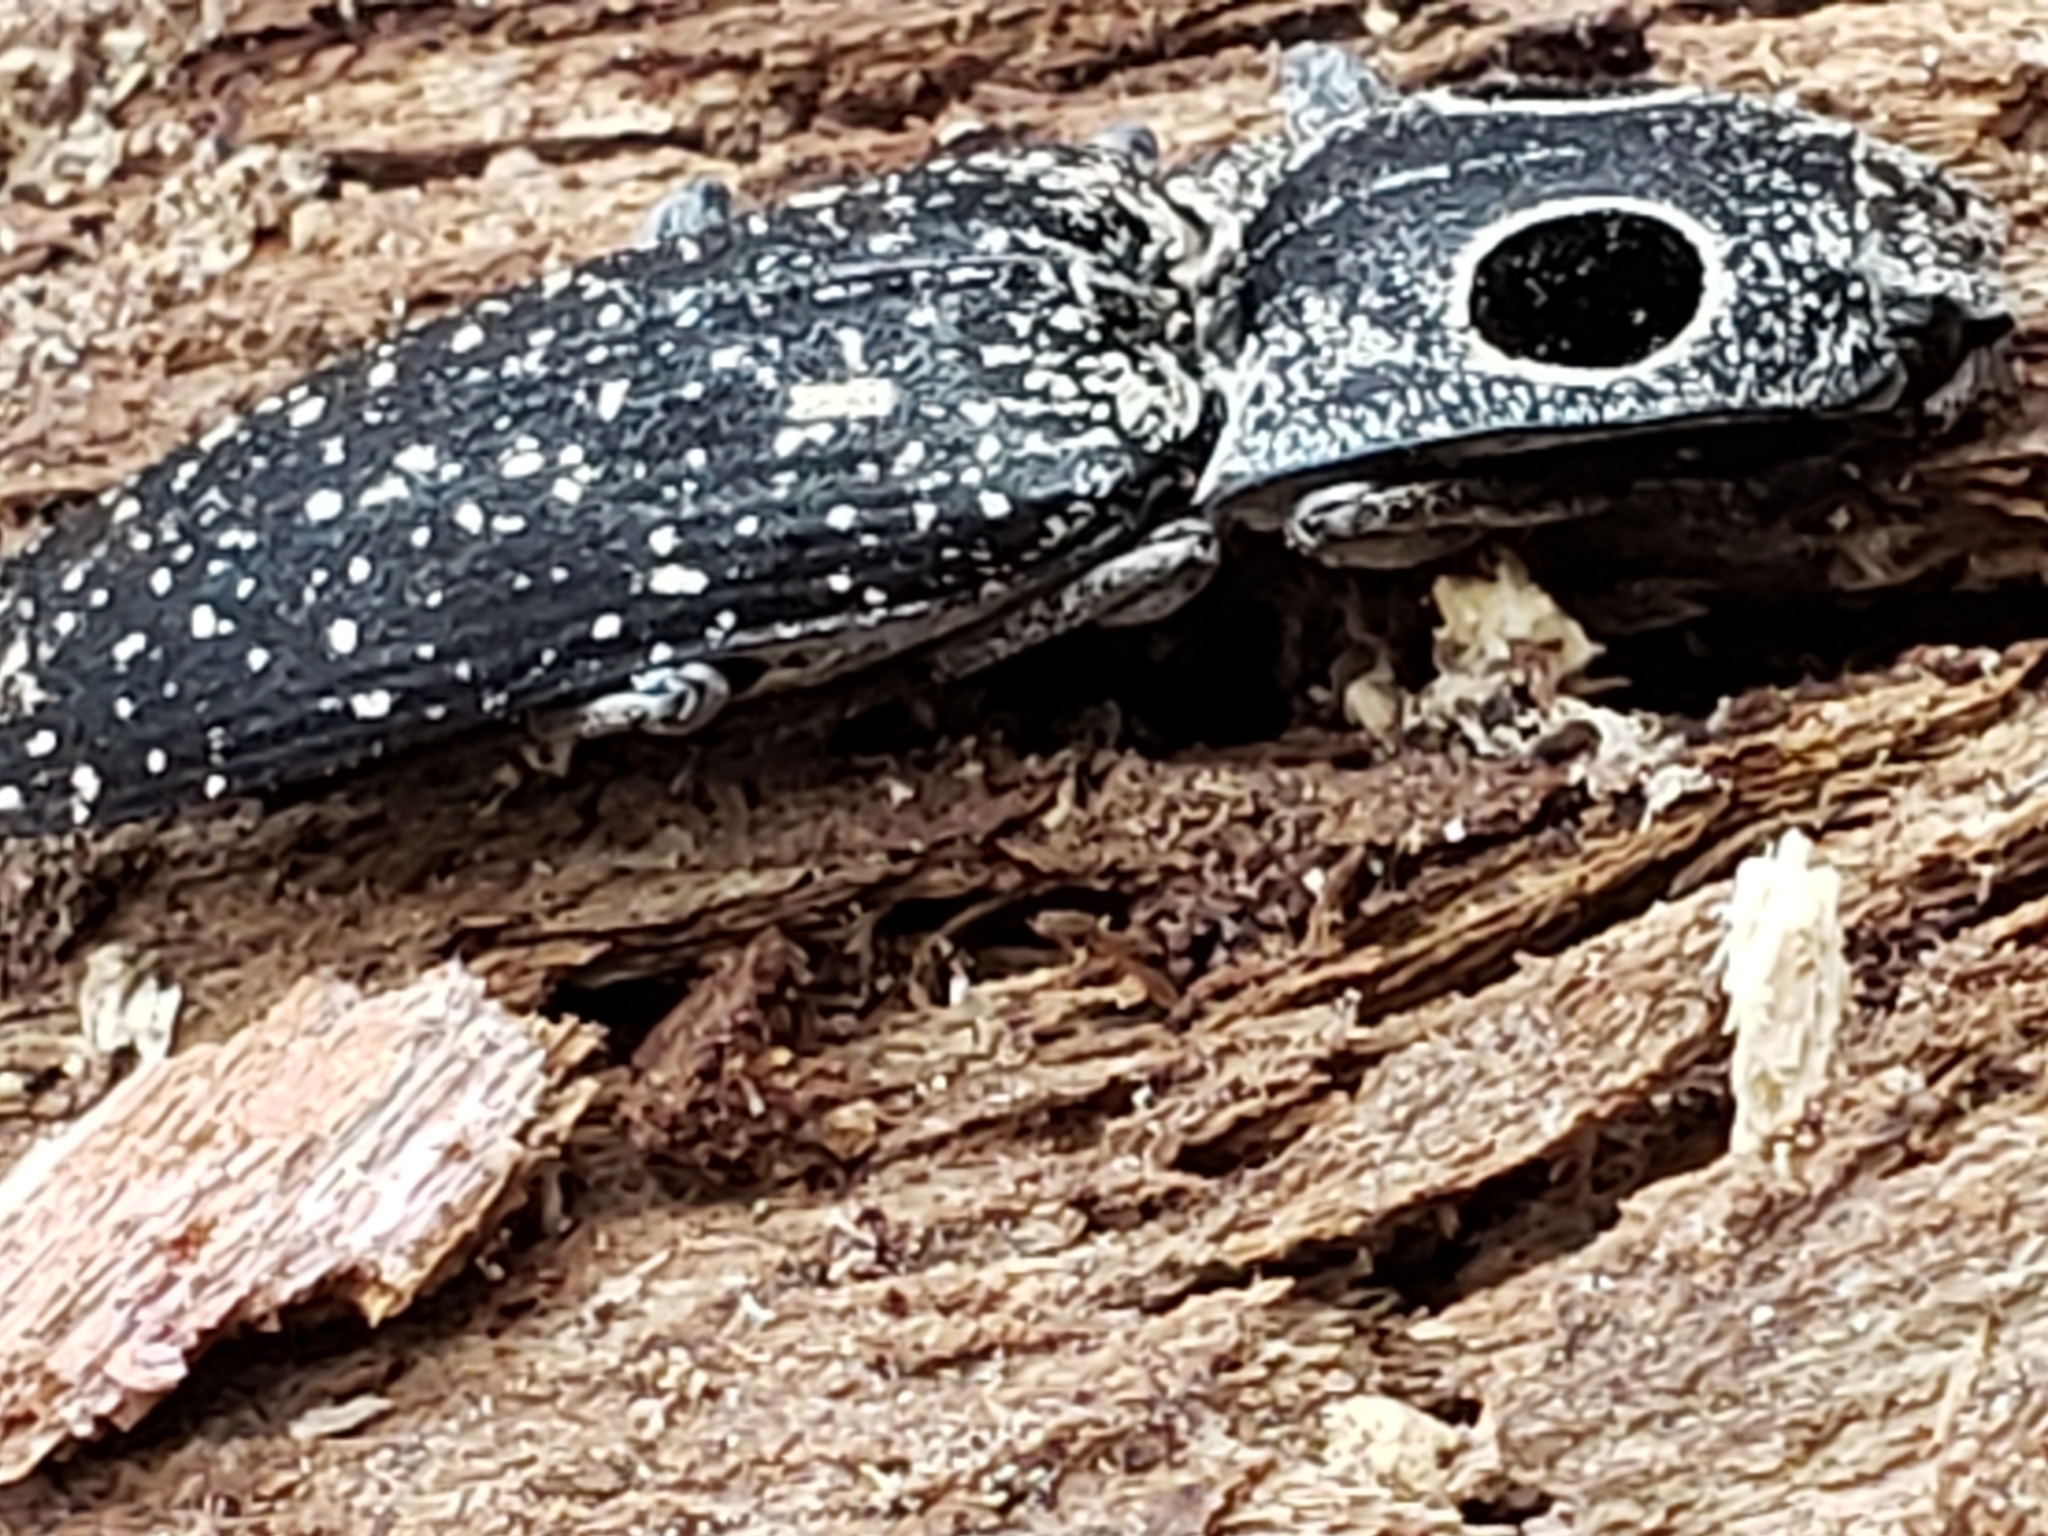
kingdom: Animalia
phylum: Arthropoda
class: Insecta
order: Coleoptera
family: Elateridae
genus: Alaus
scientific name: Alaus oculatus
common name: Eastern eyed click beetle
